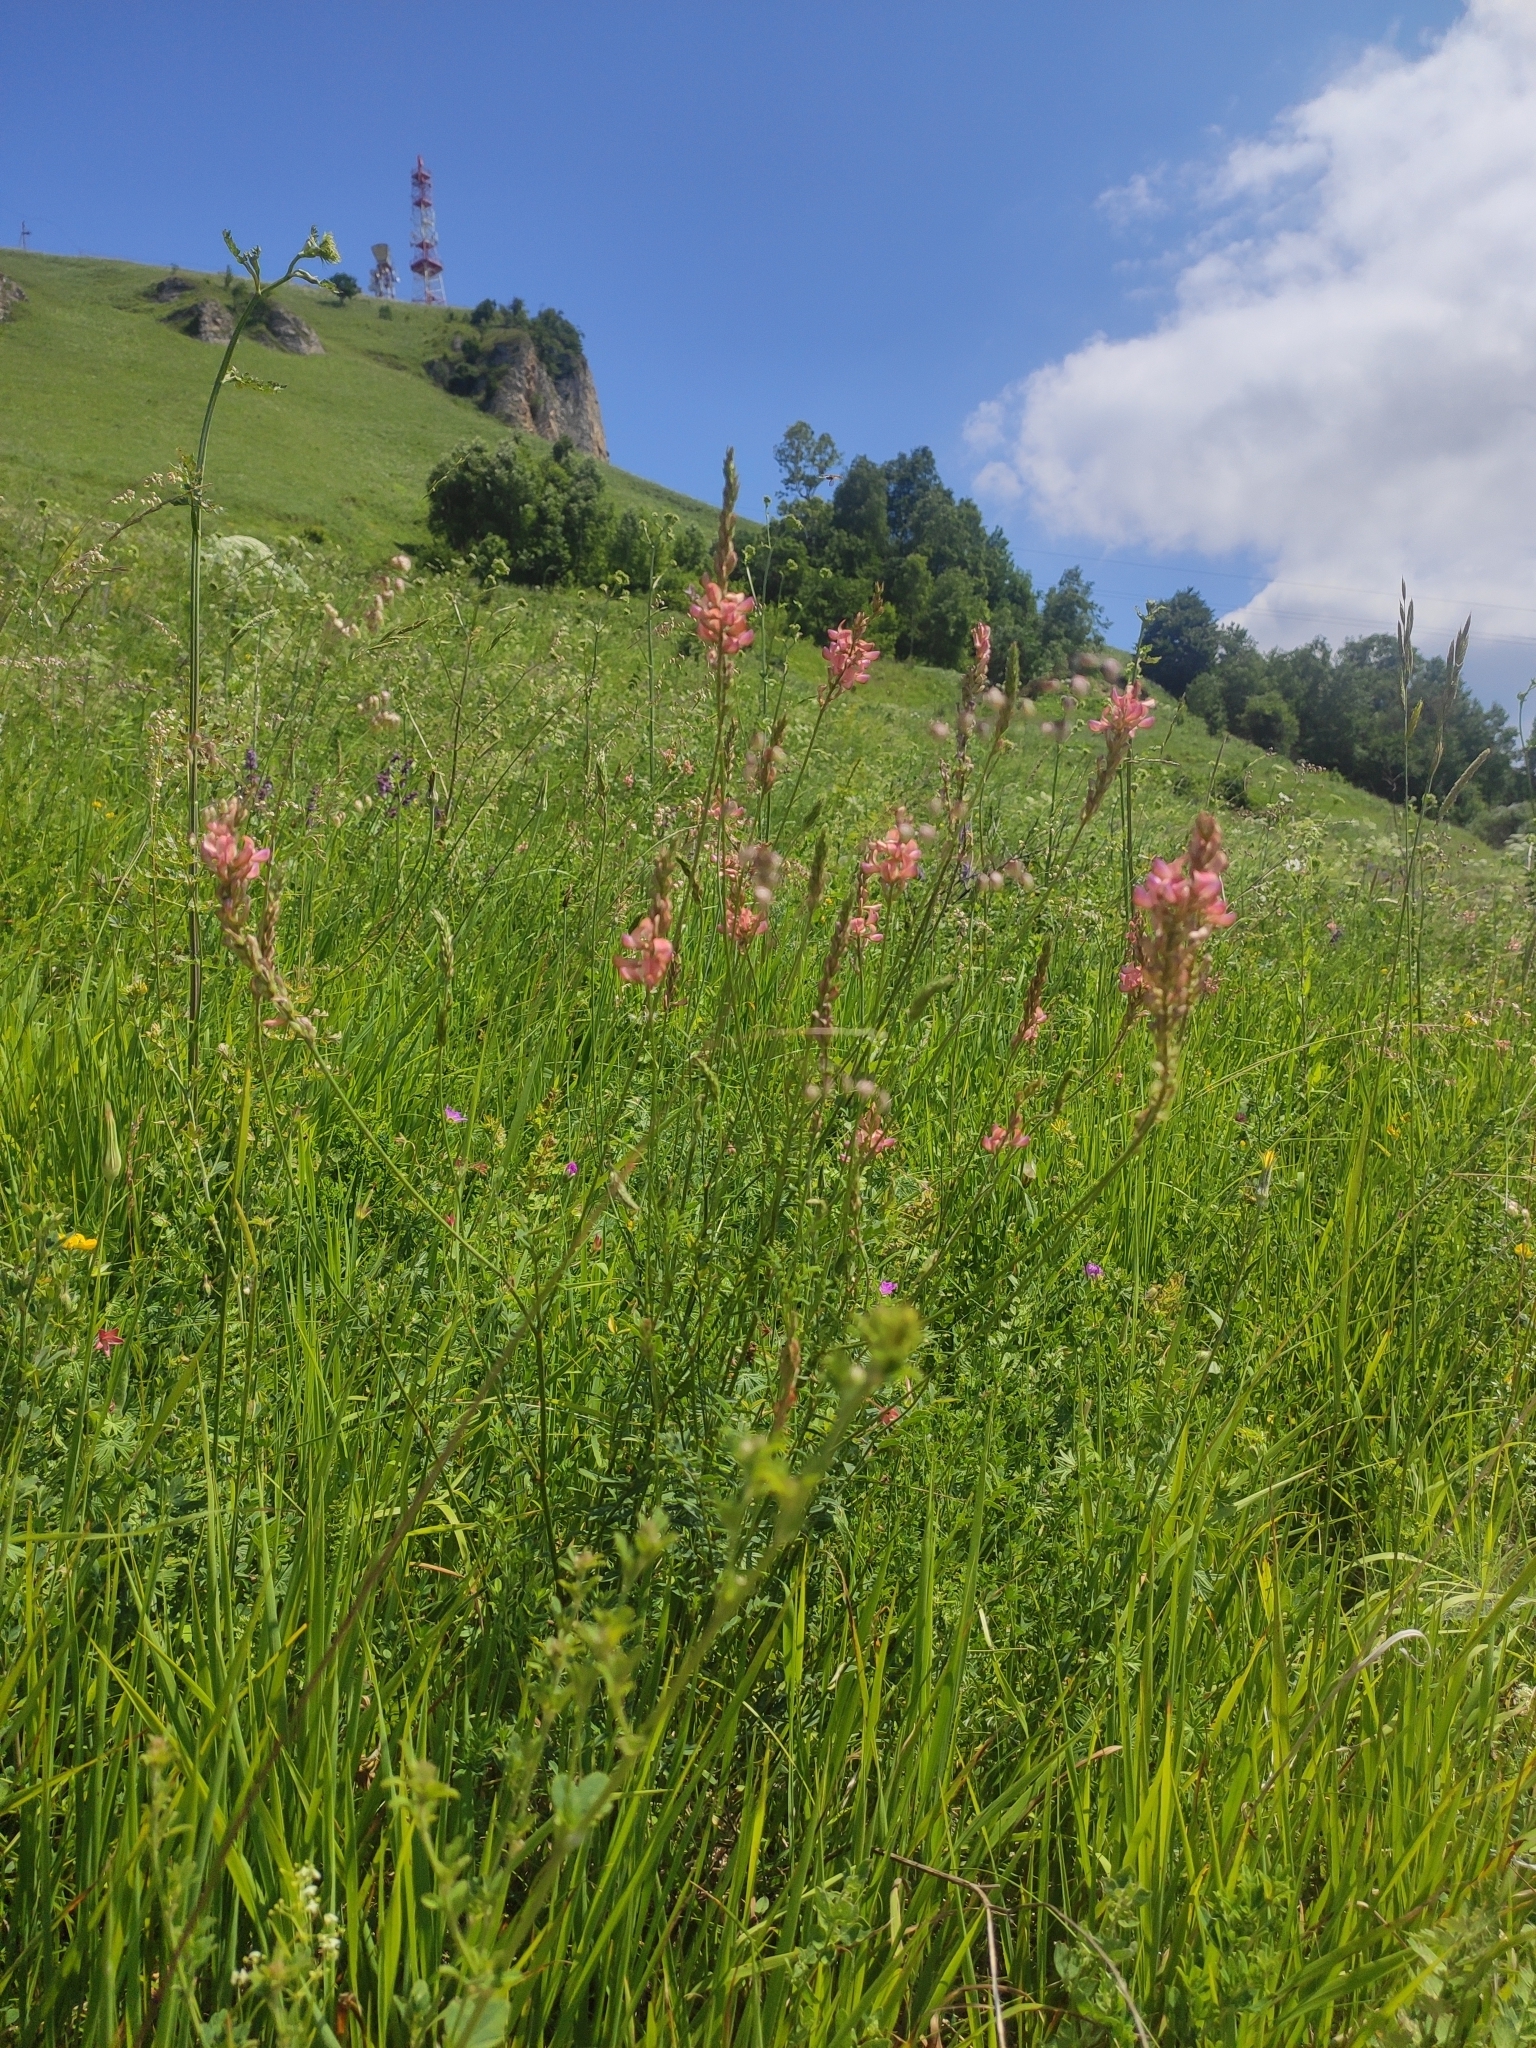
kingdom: Plantae
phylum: Tracheophyta
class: Magnoliopsida
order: Fabales
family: Fabaceae
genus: Onobrychis
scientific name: Onobrychis viciifolia
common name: Sainfoin
